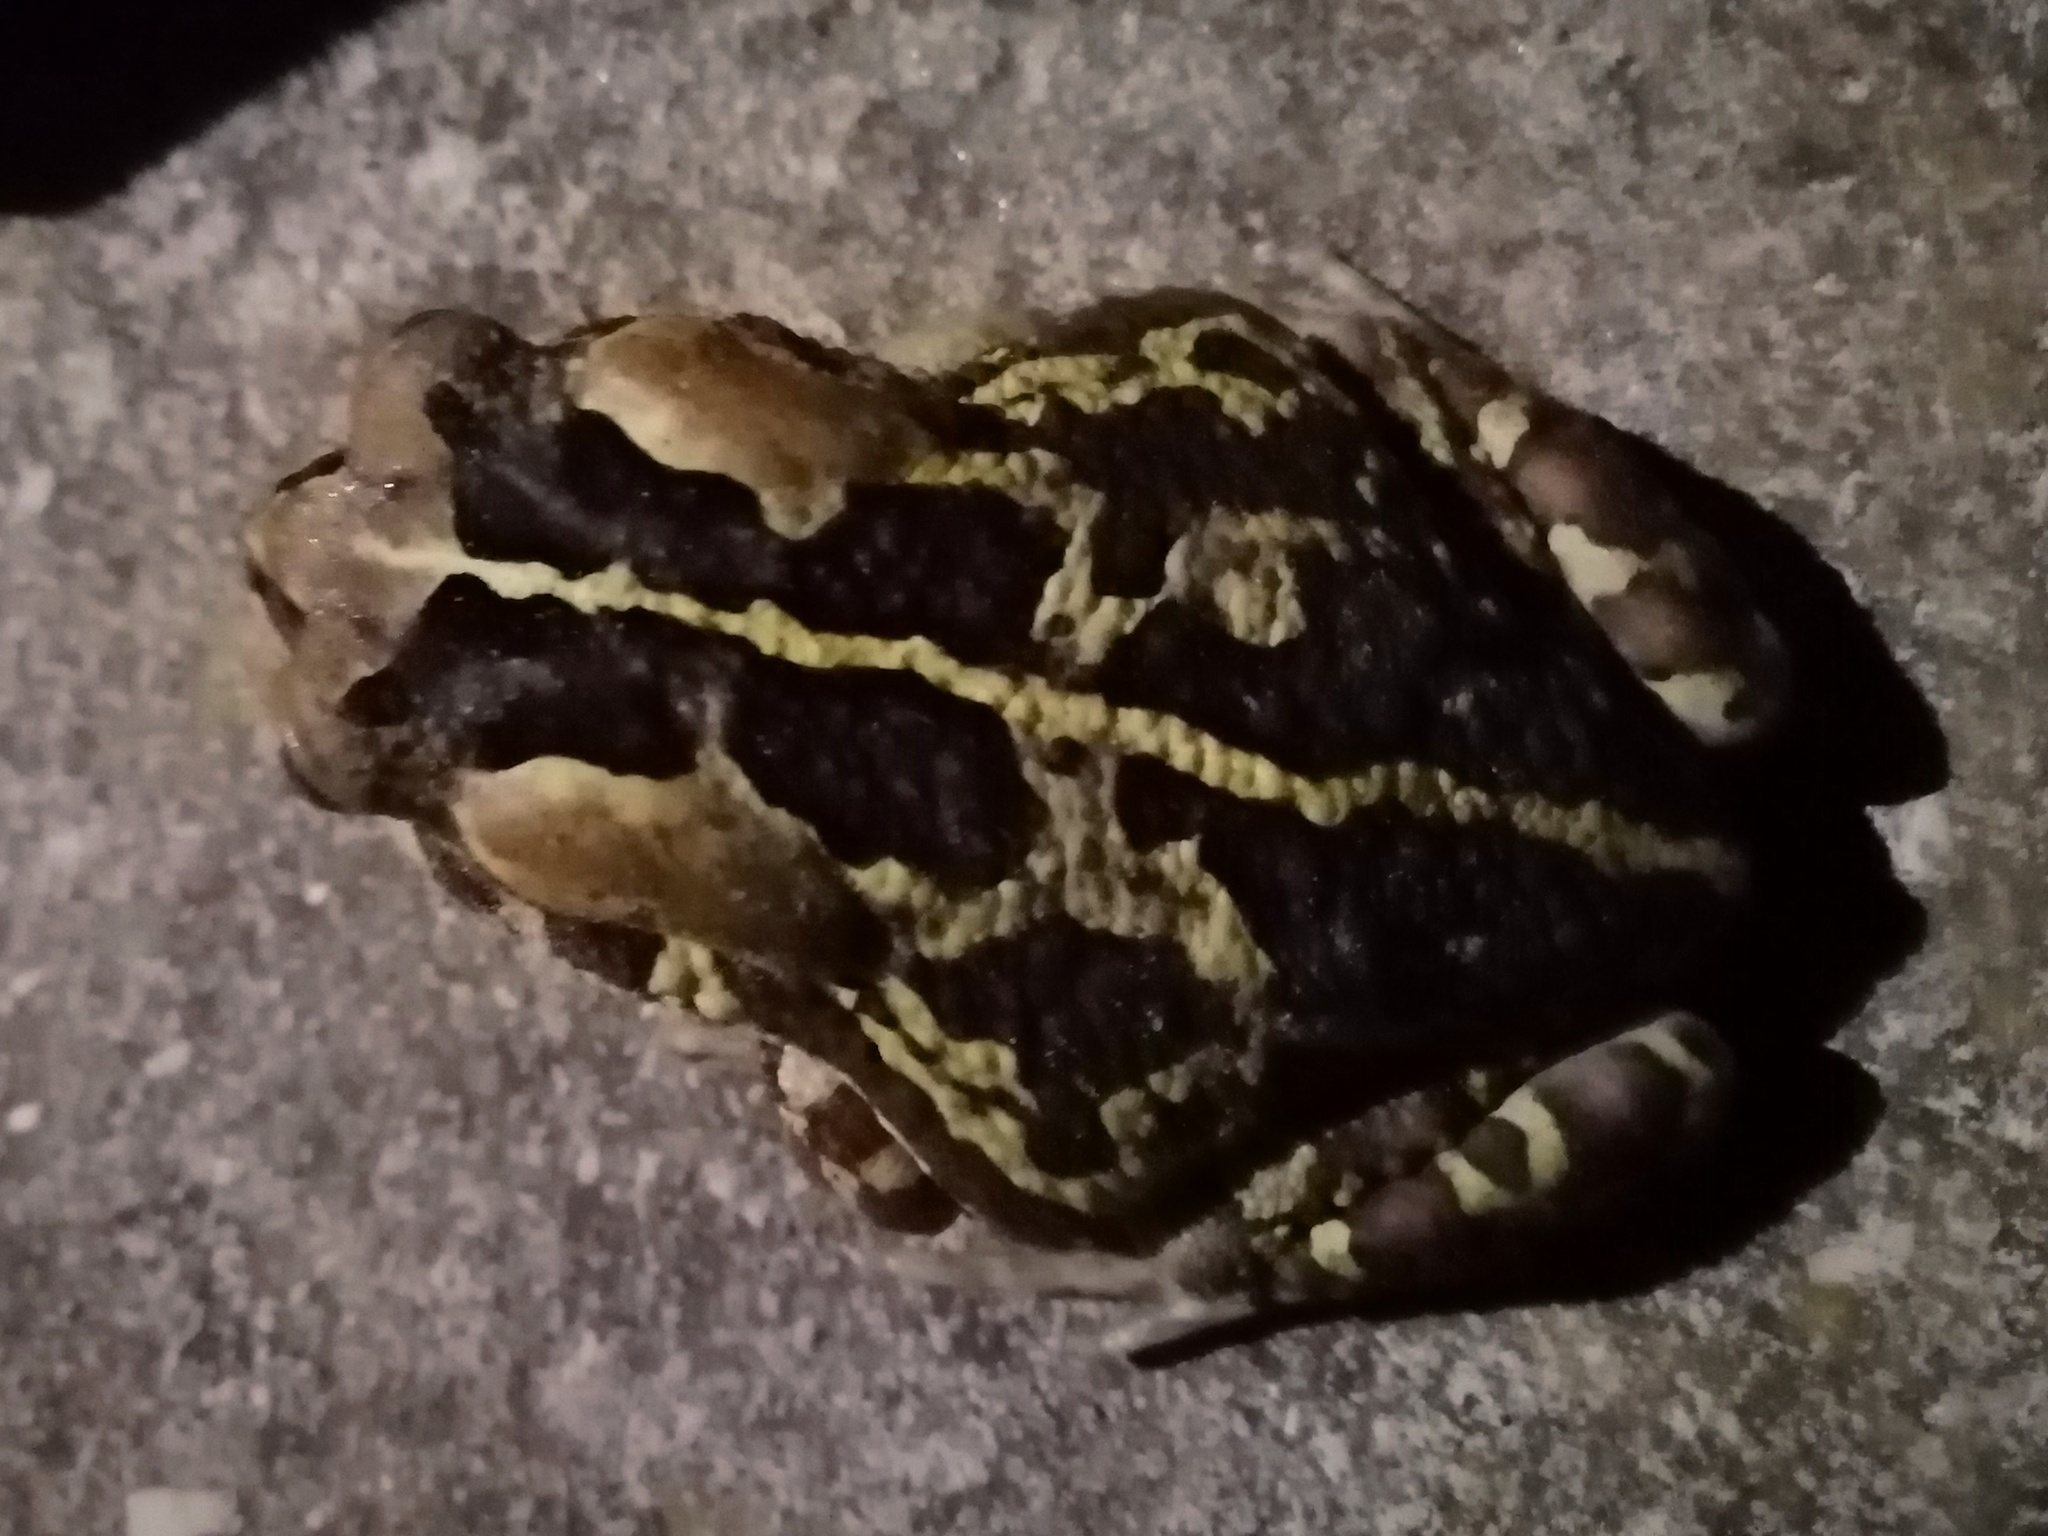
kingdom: Animalia
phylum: Chordata
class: Amphibia
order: Anura
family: Bufonidae
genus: Sclerophrys
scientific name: Sclerophrys pantherina
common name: Panther toad
